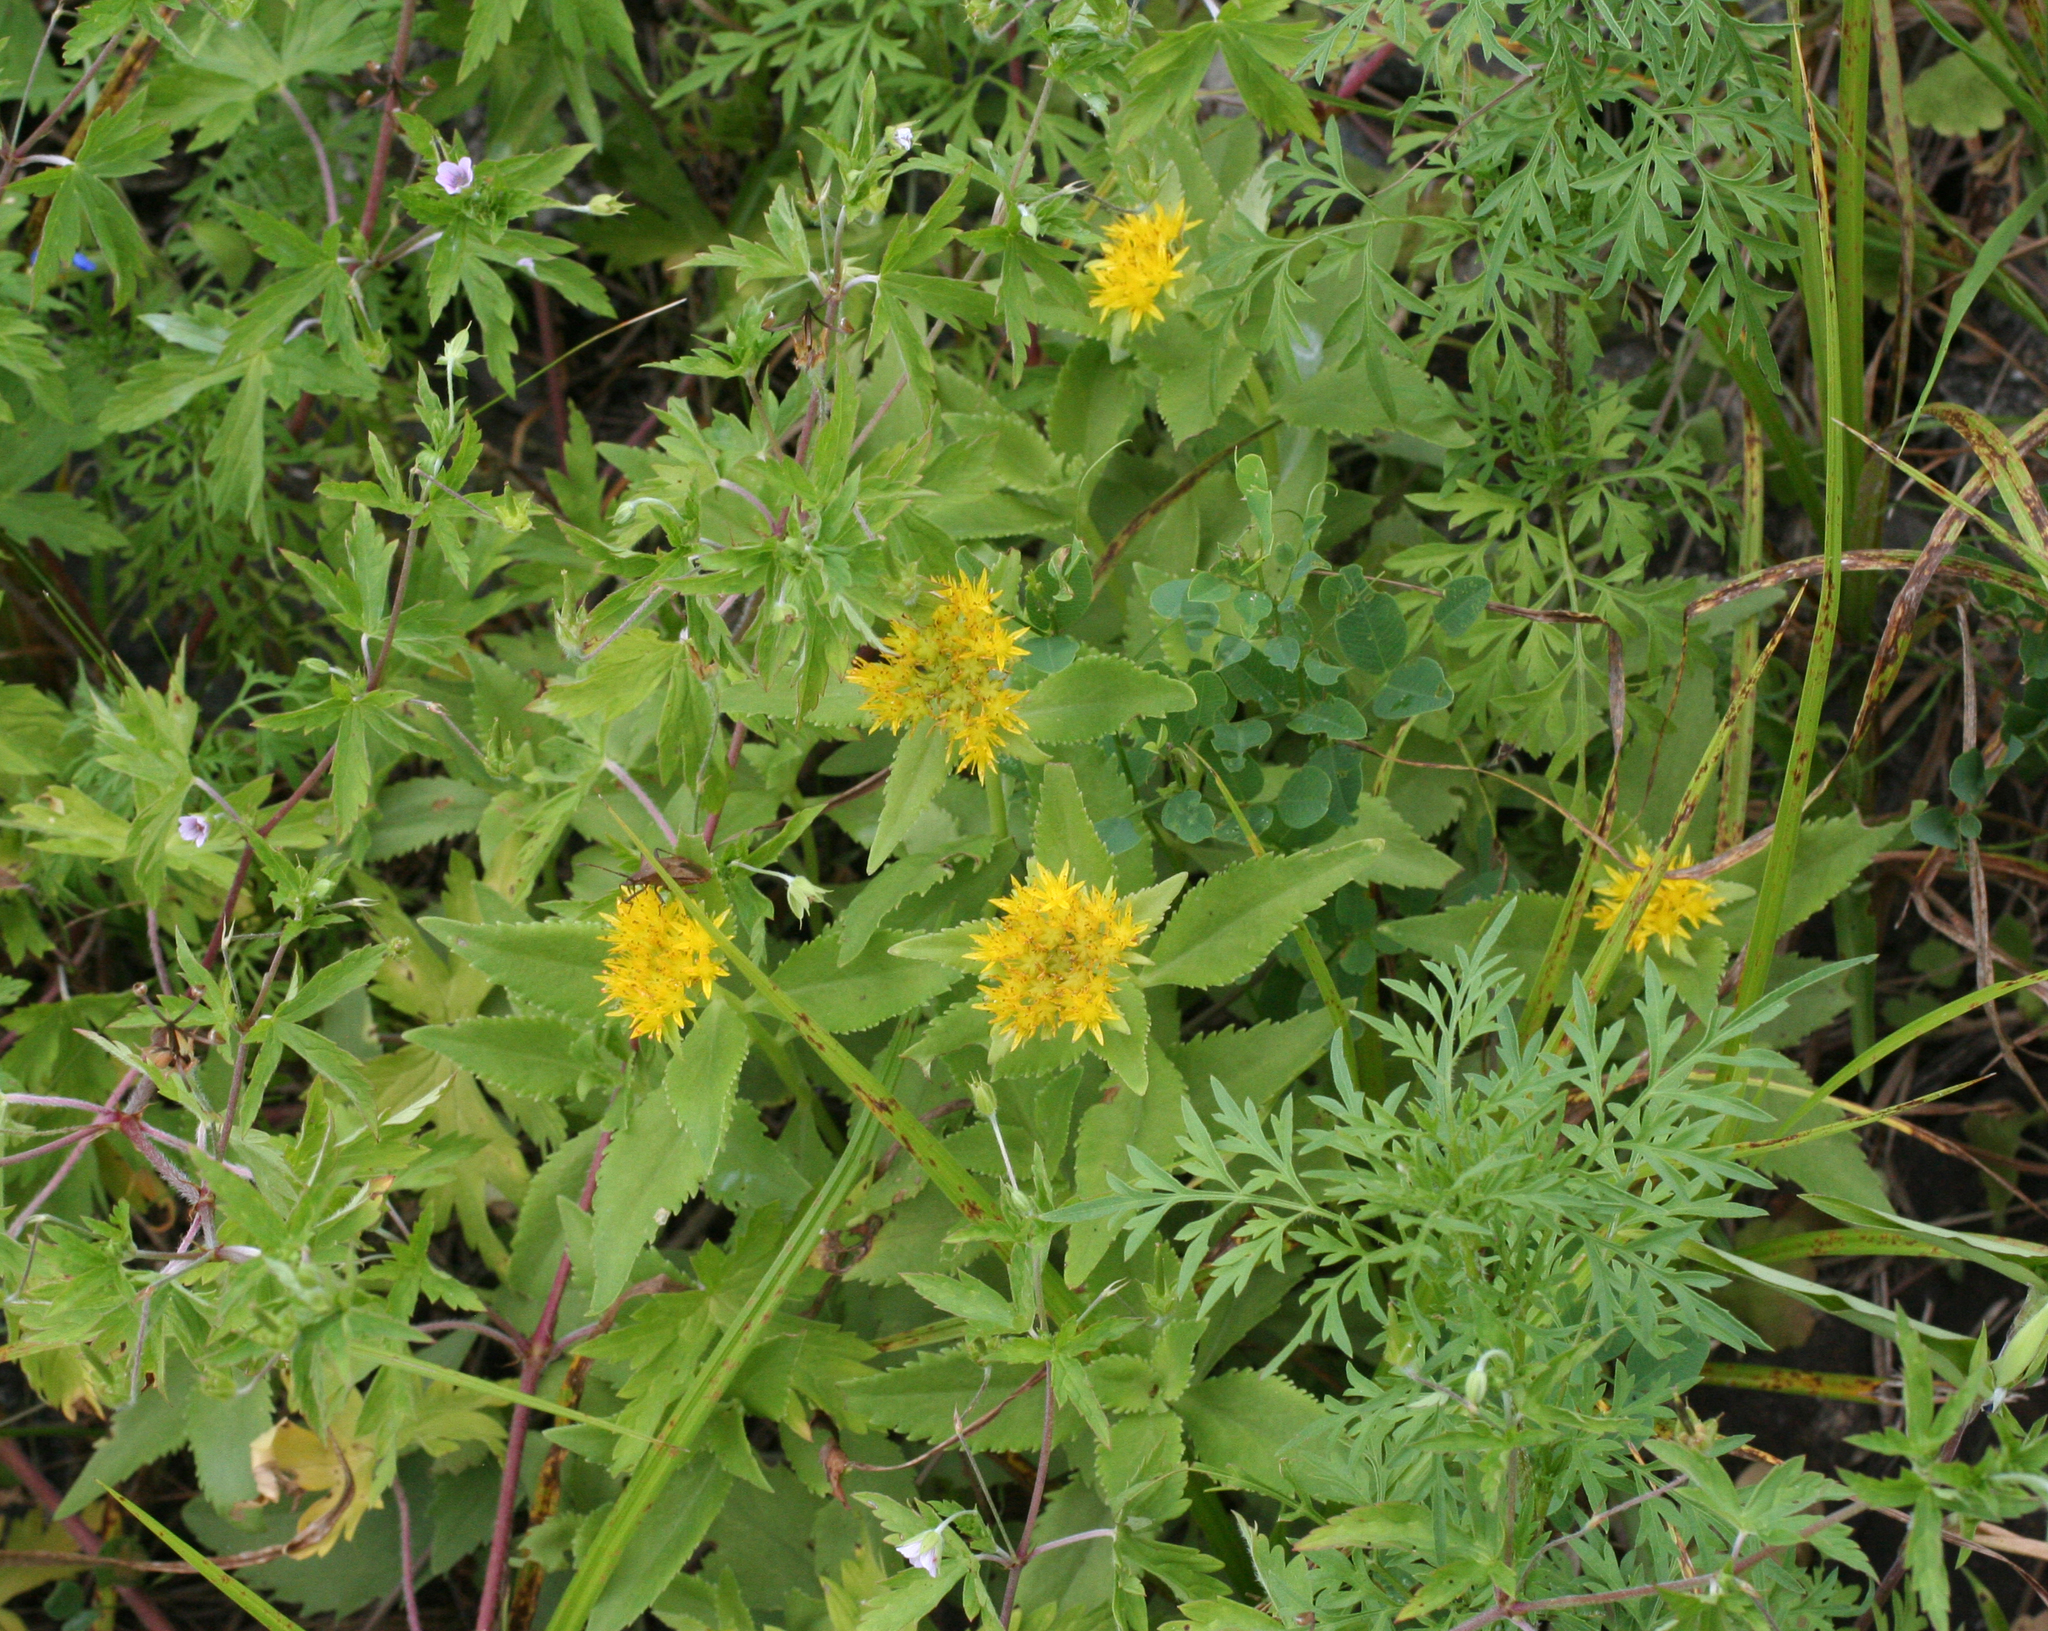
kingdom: Plantae
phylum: Tracheophyta
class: Magnoliopsida
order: Saxifragales
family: Crassulaceae
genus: Phedimus
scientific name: Phedimus aizoon
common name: Orpin aizoon
